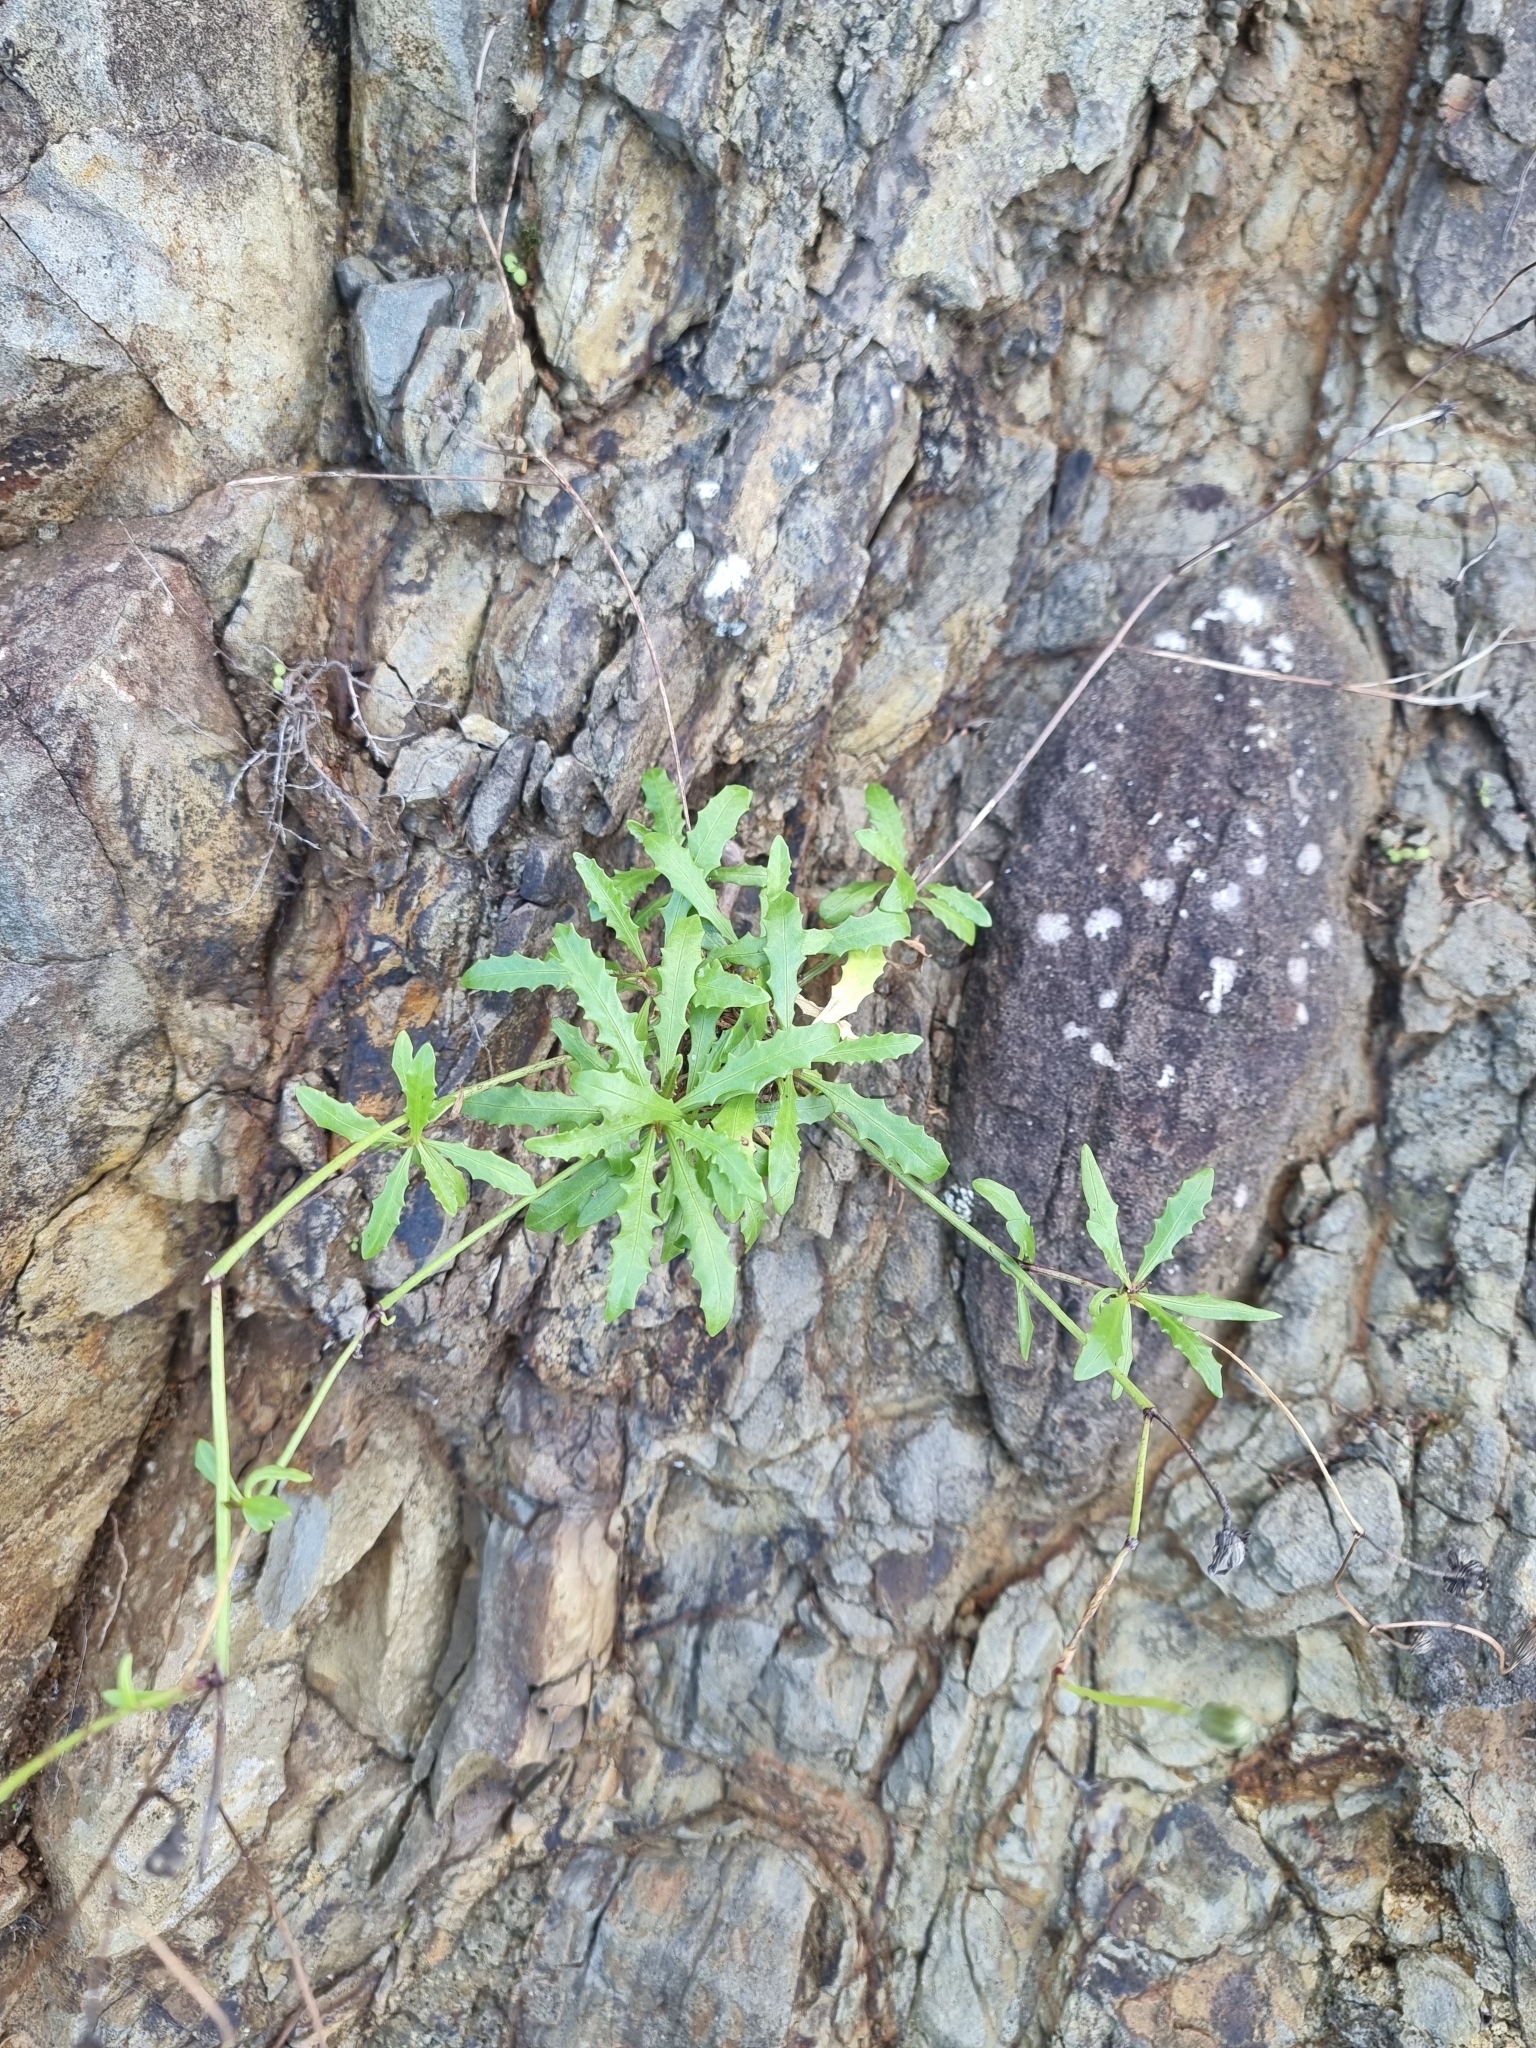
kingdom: Plantae
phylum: Tracheophyta
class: Magnoliopsida
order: Asterales
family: Asteraceae
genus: Tolpis
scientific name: Tolpis succulenta
